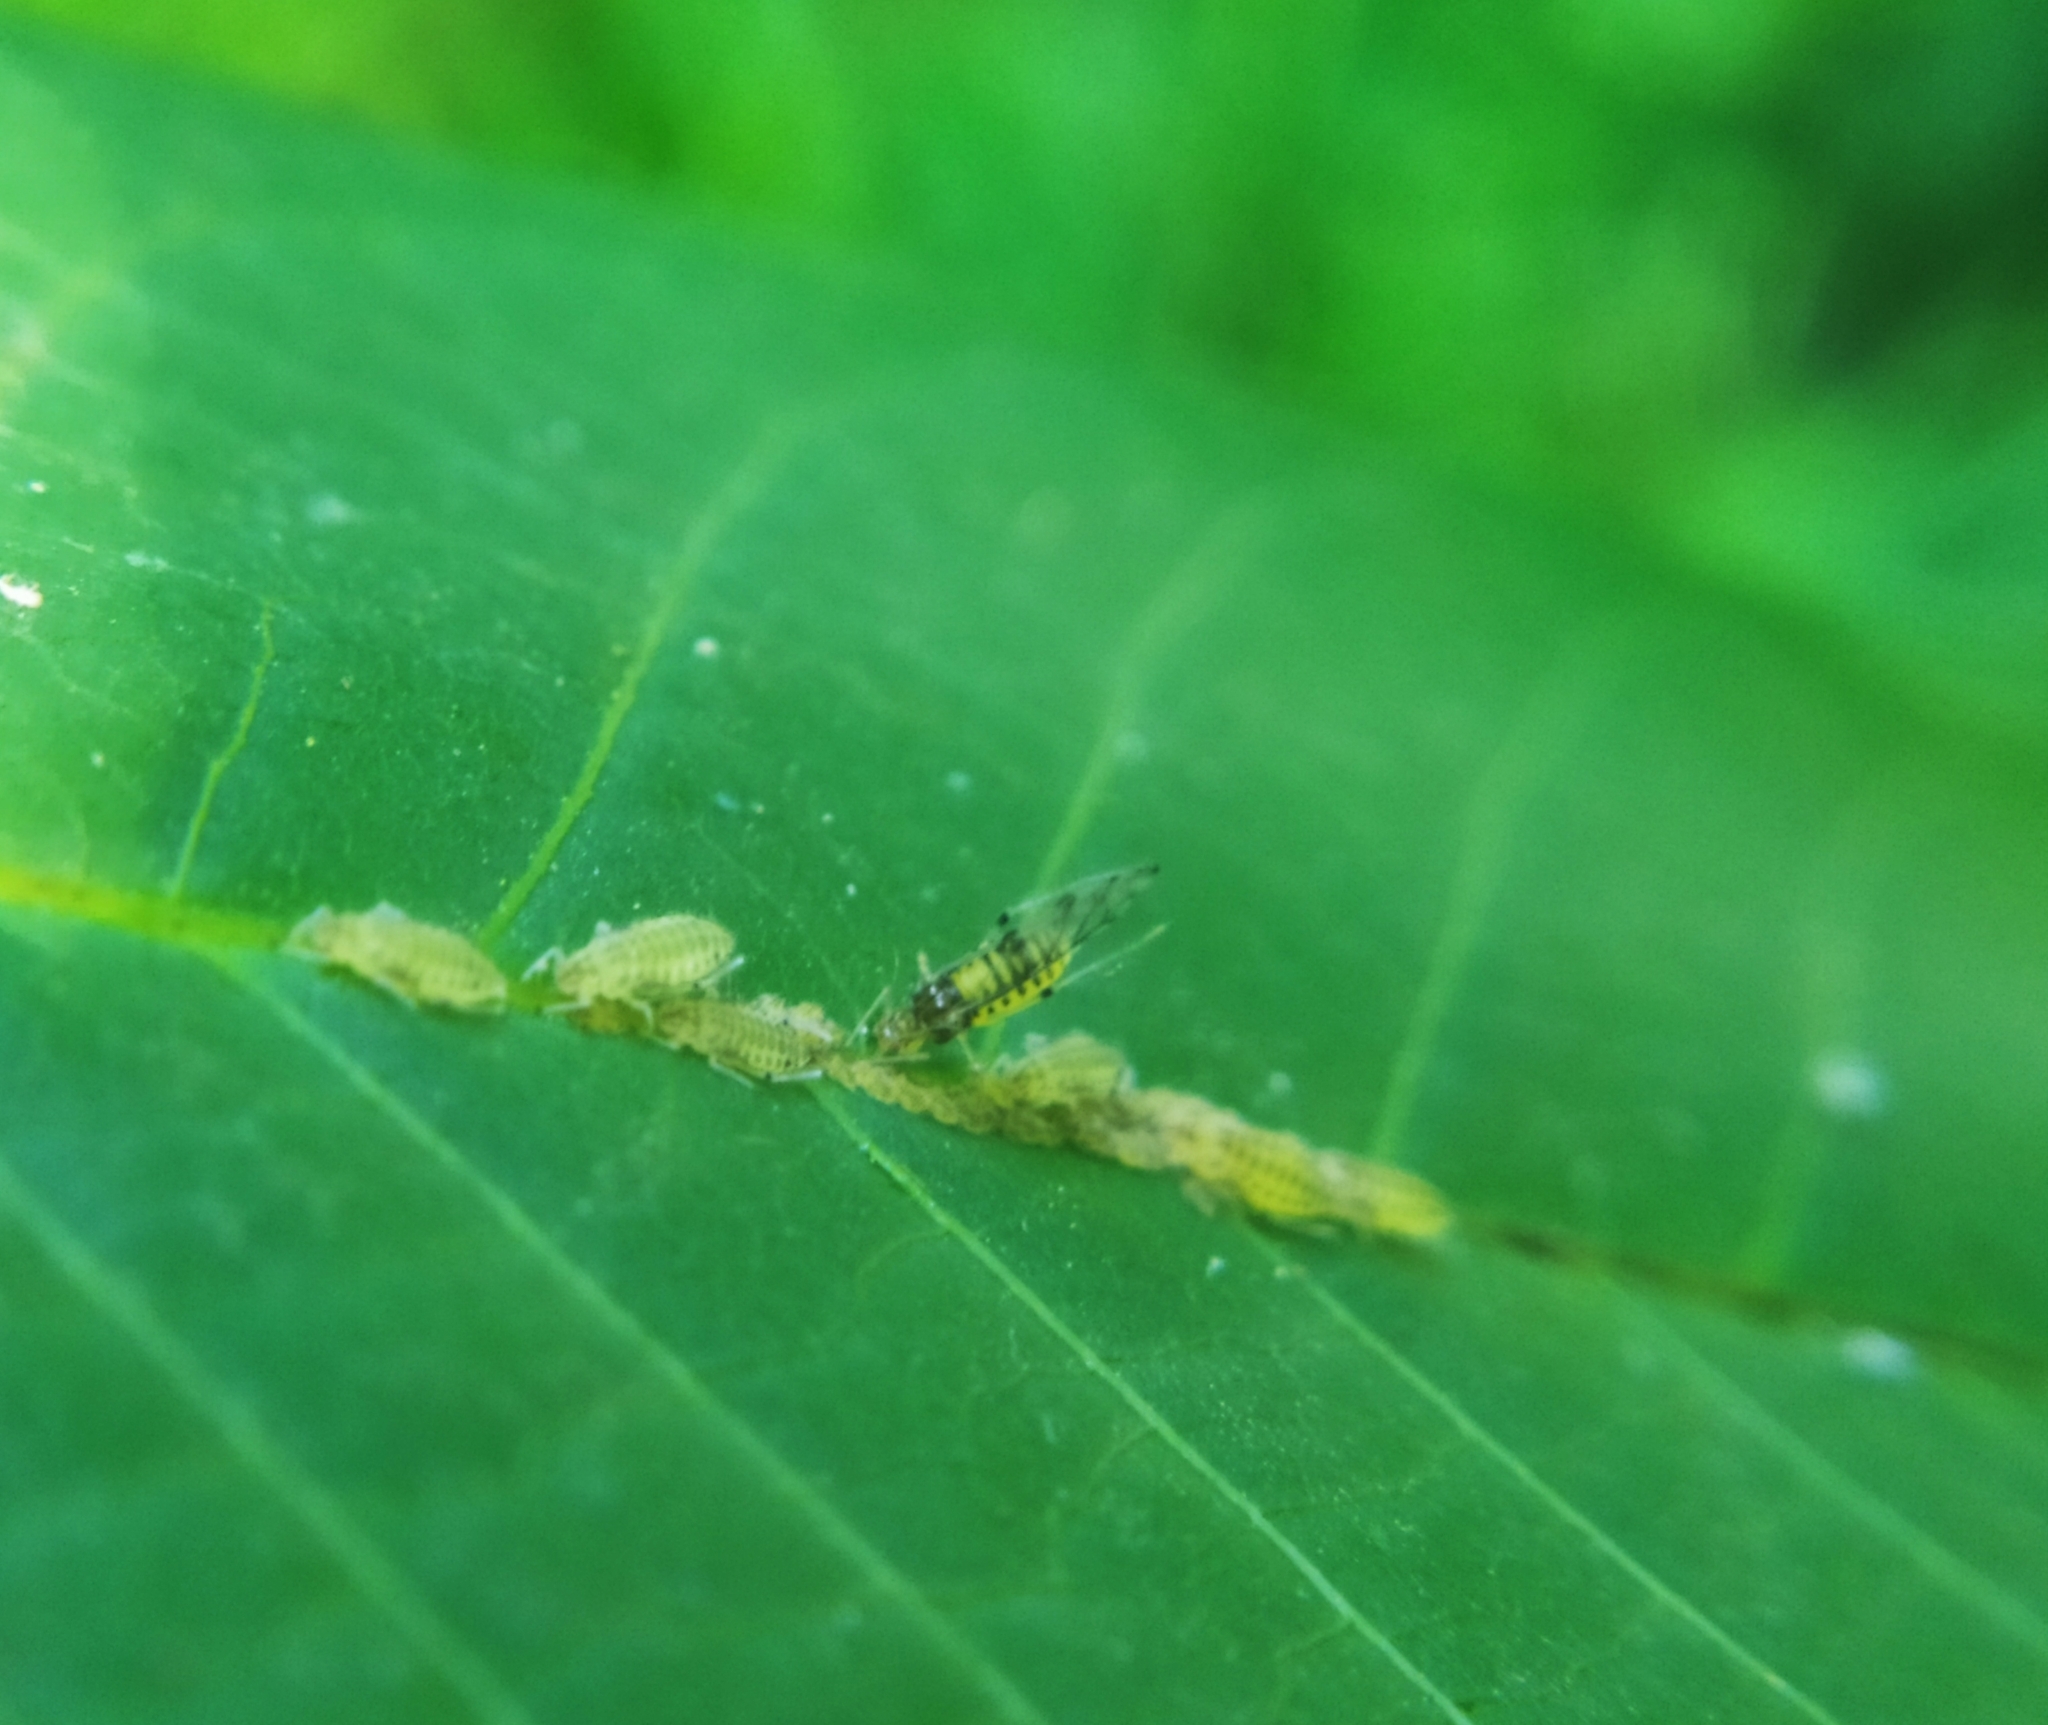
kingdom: Animalia
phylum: Arthropoda
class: Insecta
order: Hemiptera
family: Aphididae
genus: Panaphis
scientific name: Panaphis juglandis
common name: Large walnut aphid
